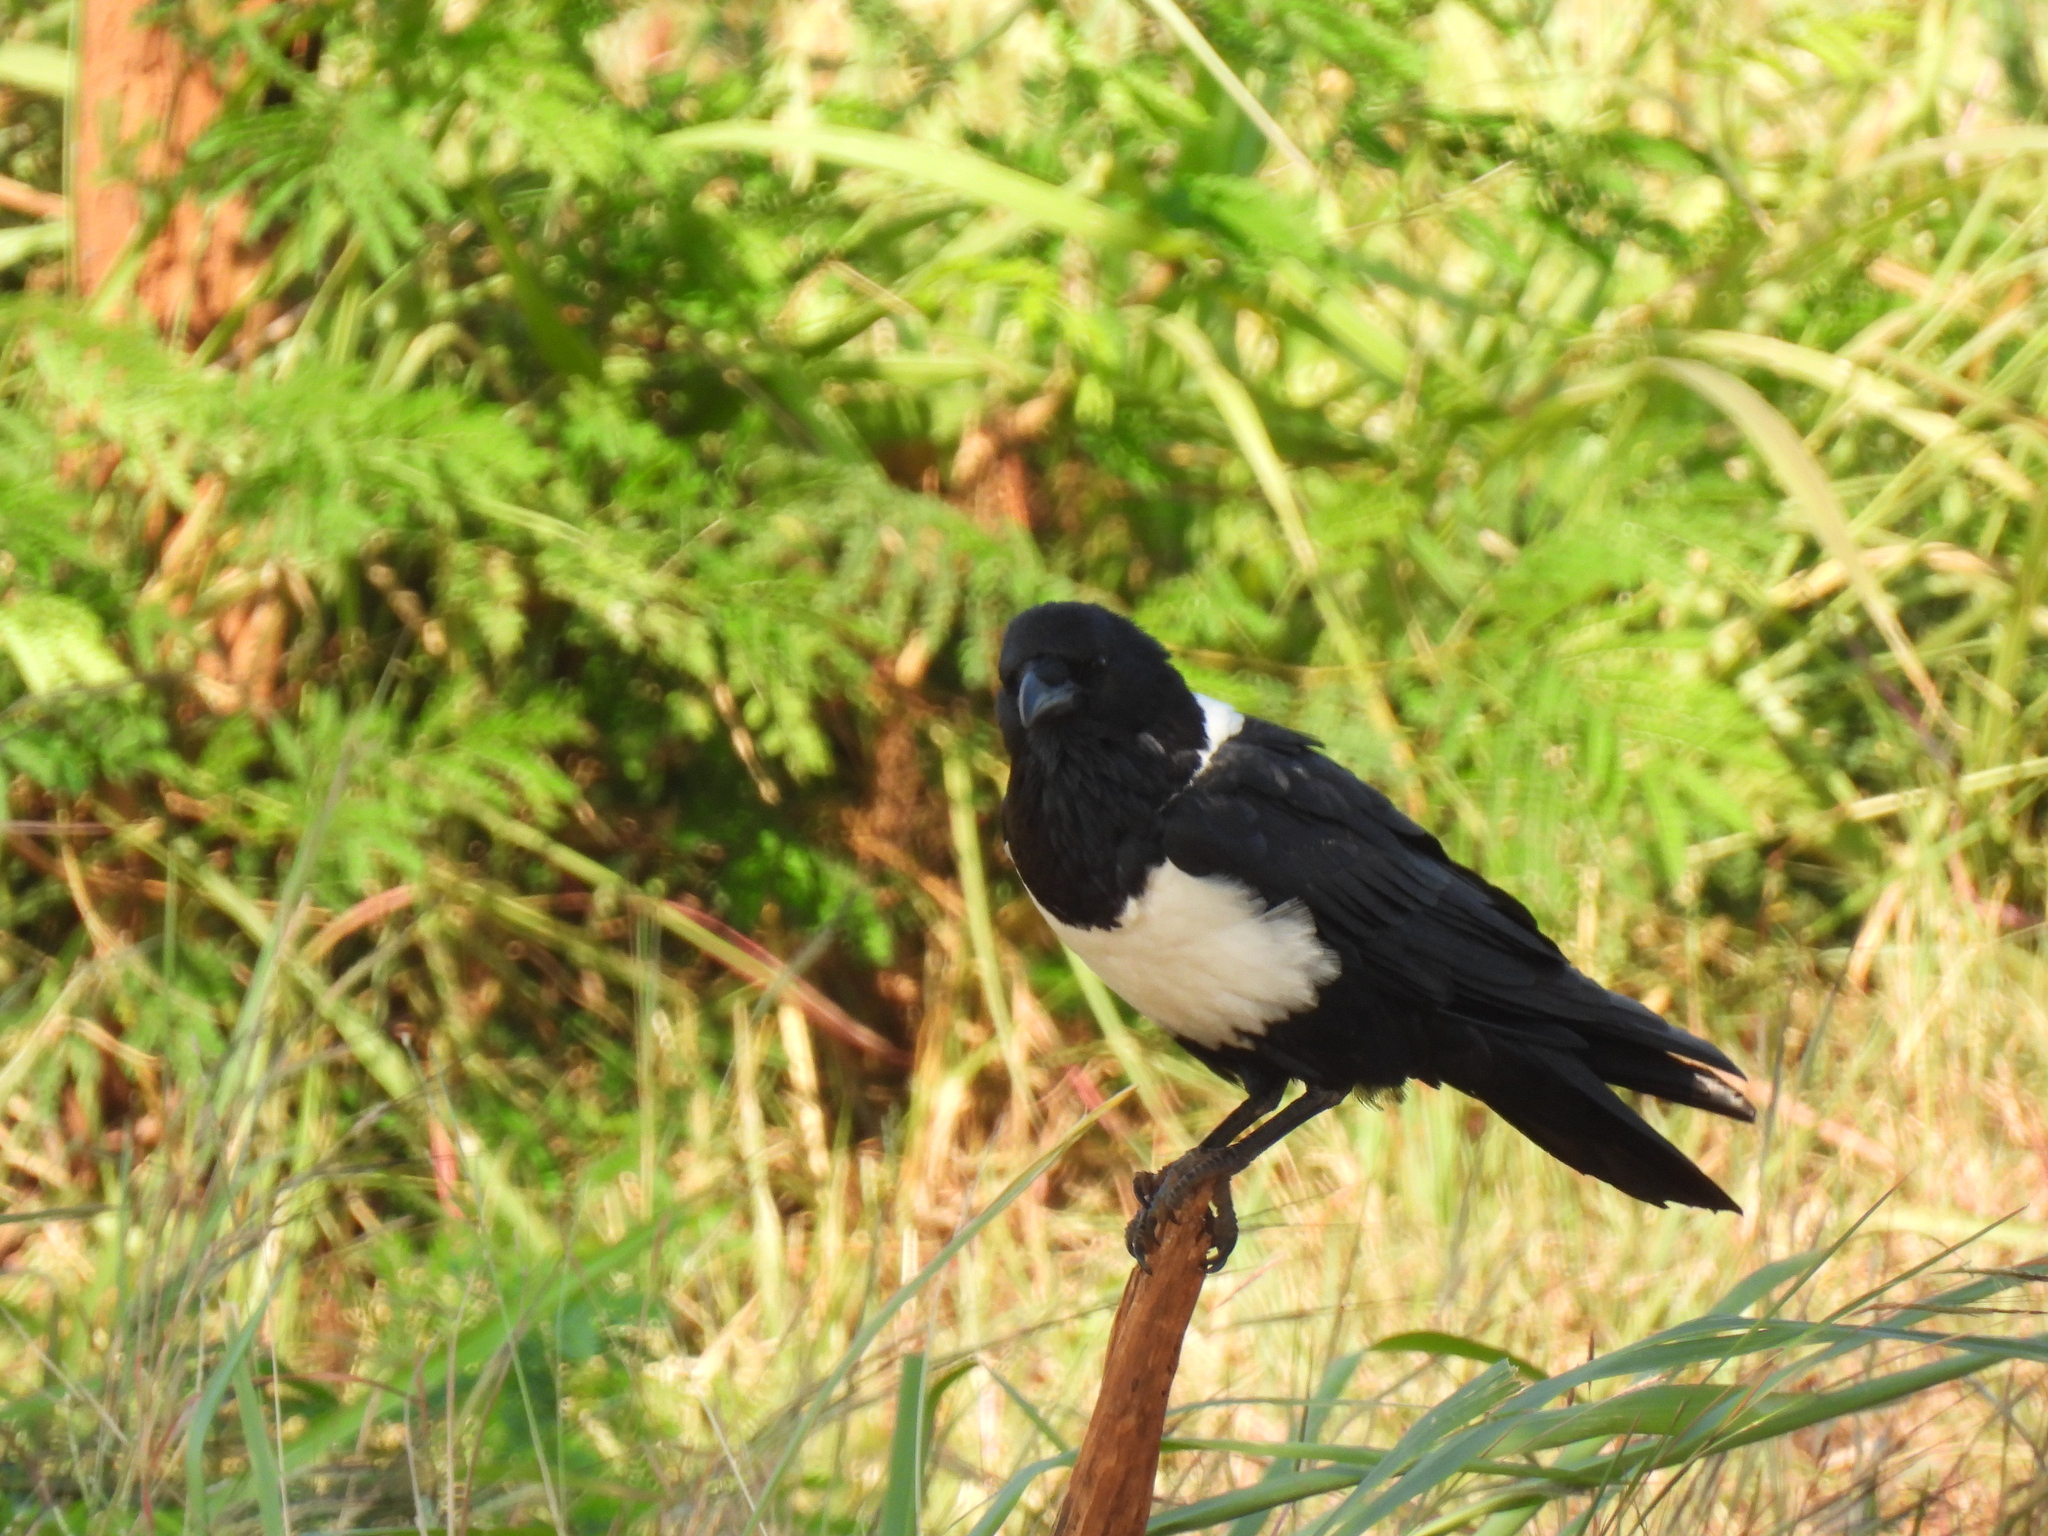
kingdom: Animalia
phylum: Chordata
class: Aves
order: Passeriformes
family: Corvidae
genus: Corvus
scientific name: Corvus albus
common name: Pied crow
